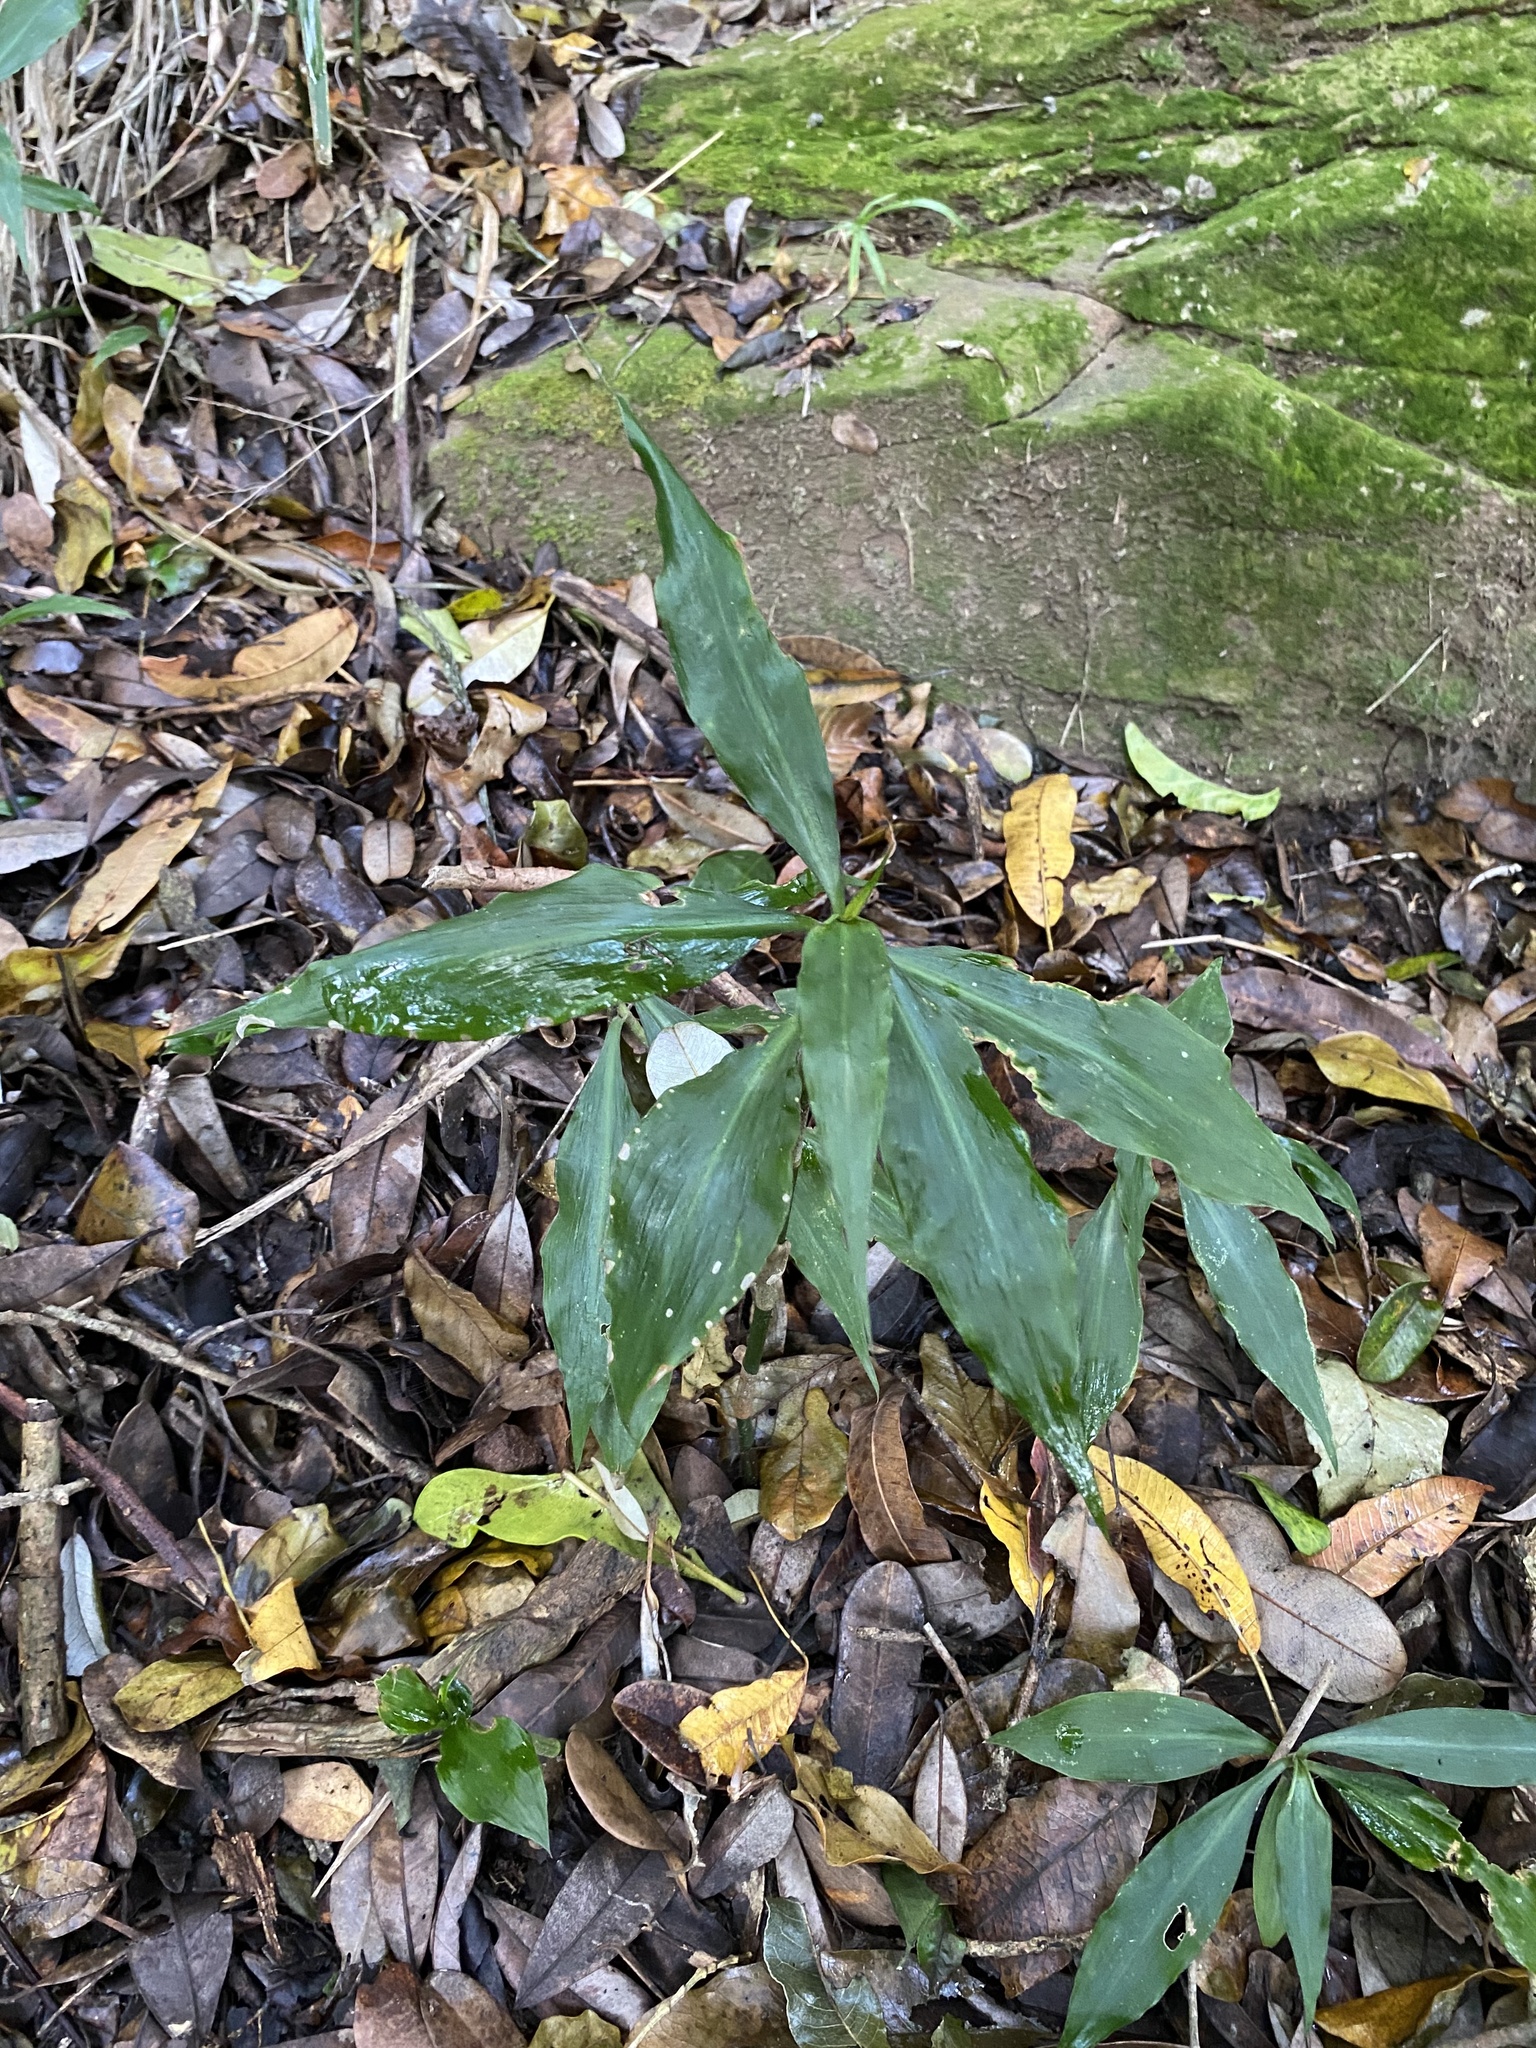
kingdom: Plantae
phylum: Tracheophyta
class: Liliopsida
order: Commelinales
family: Commelinaceae
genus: Coleotrype
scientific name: Coleotrype natalensis
